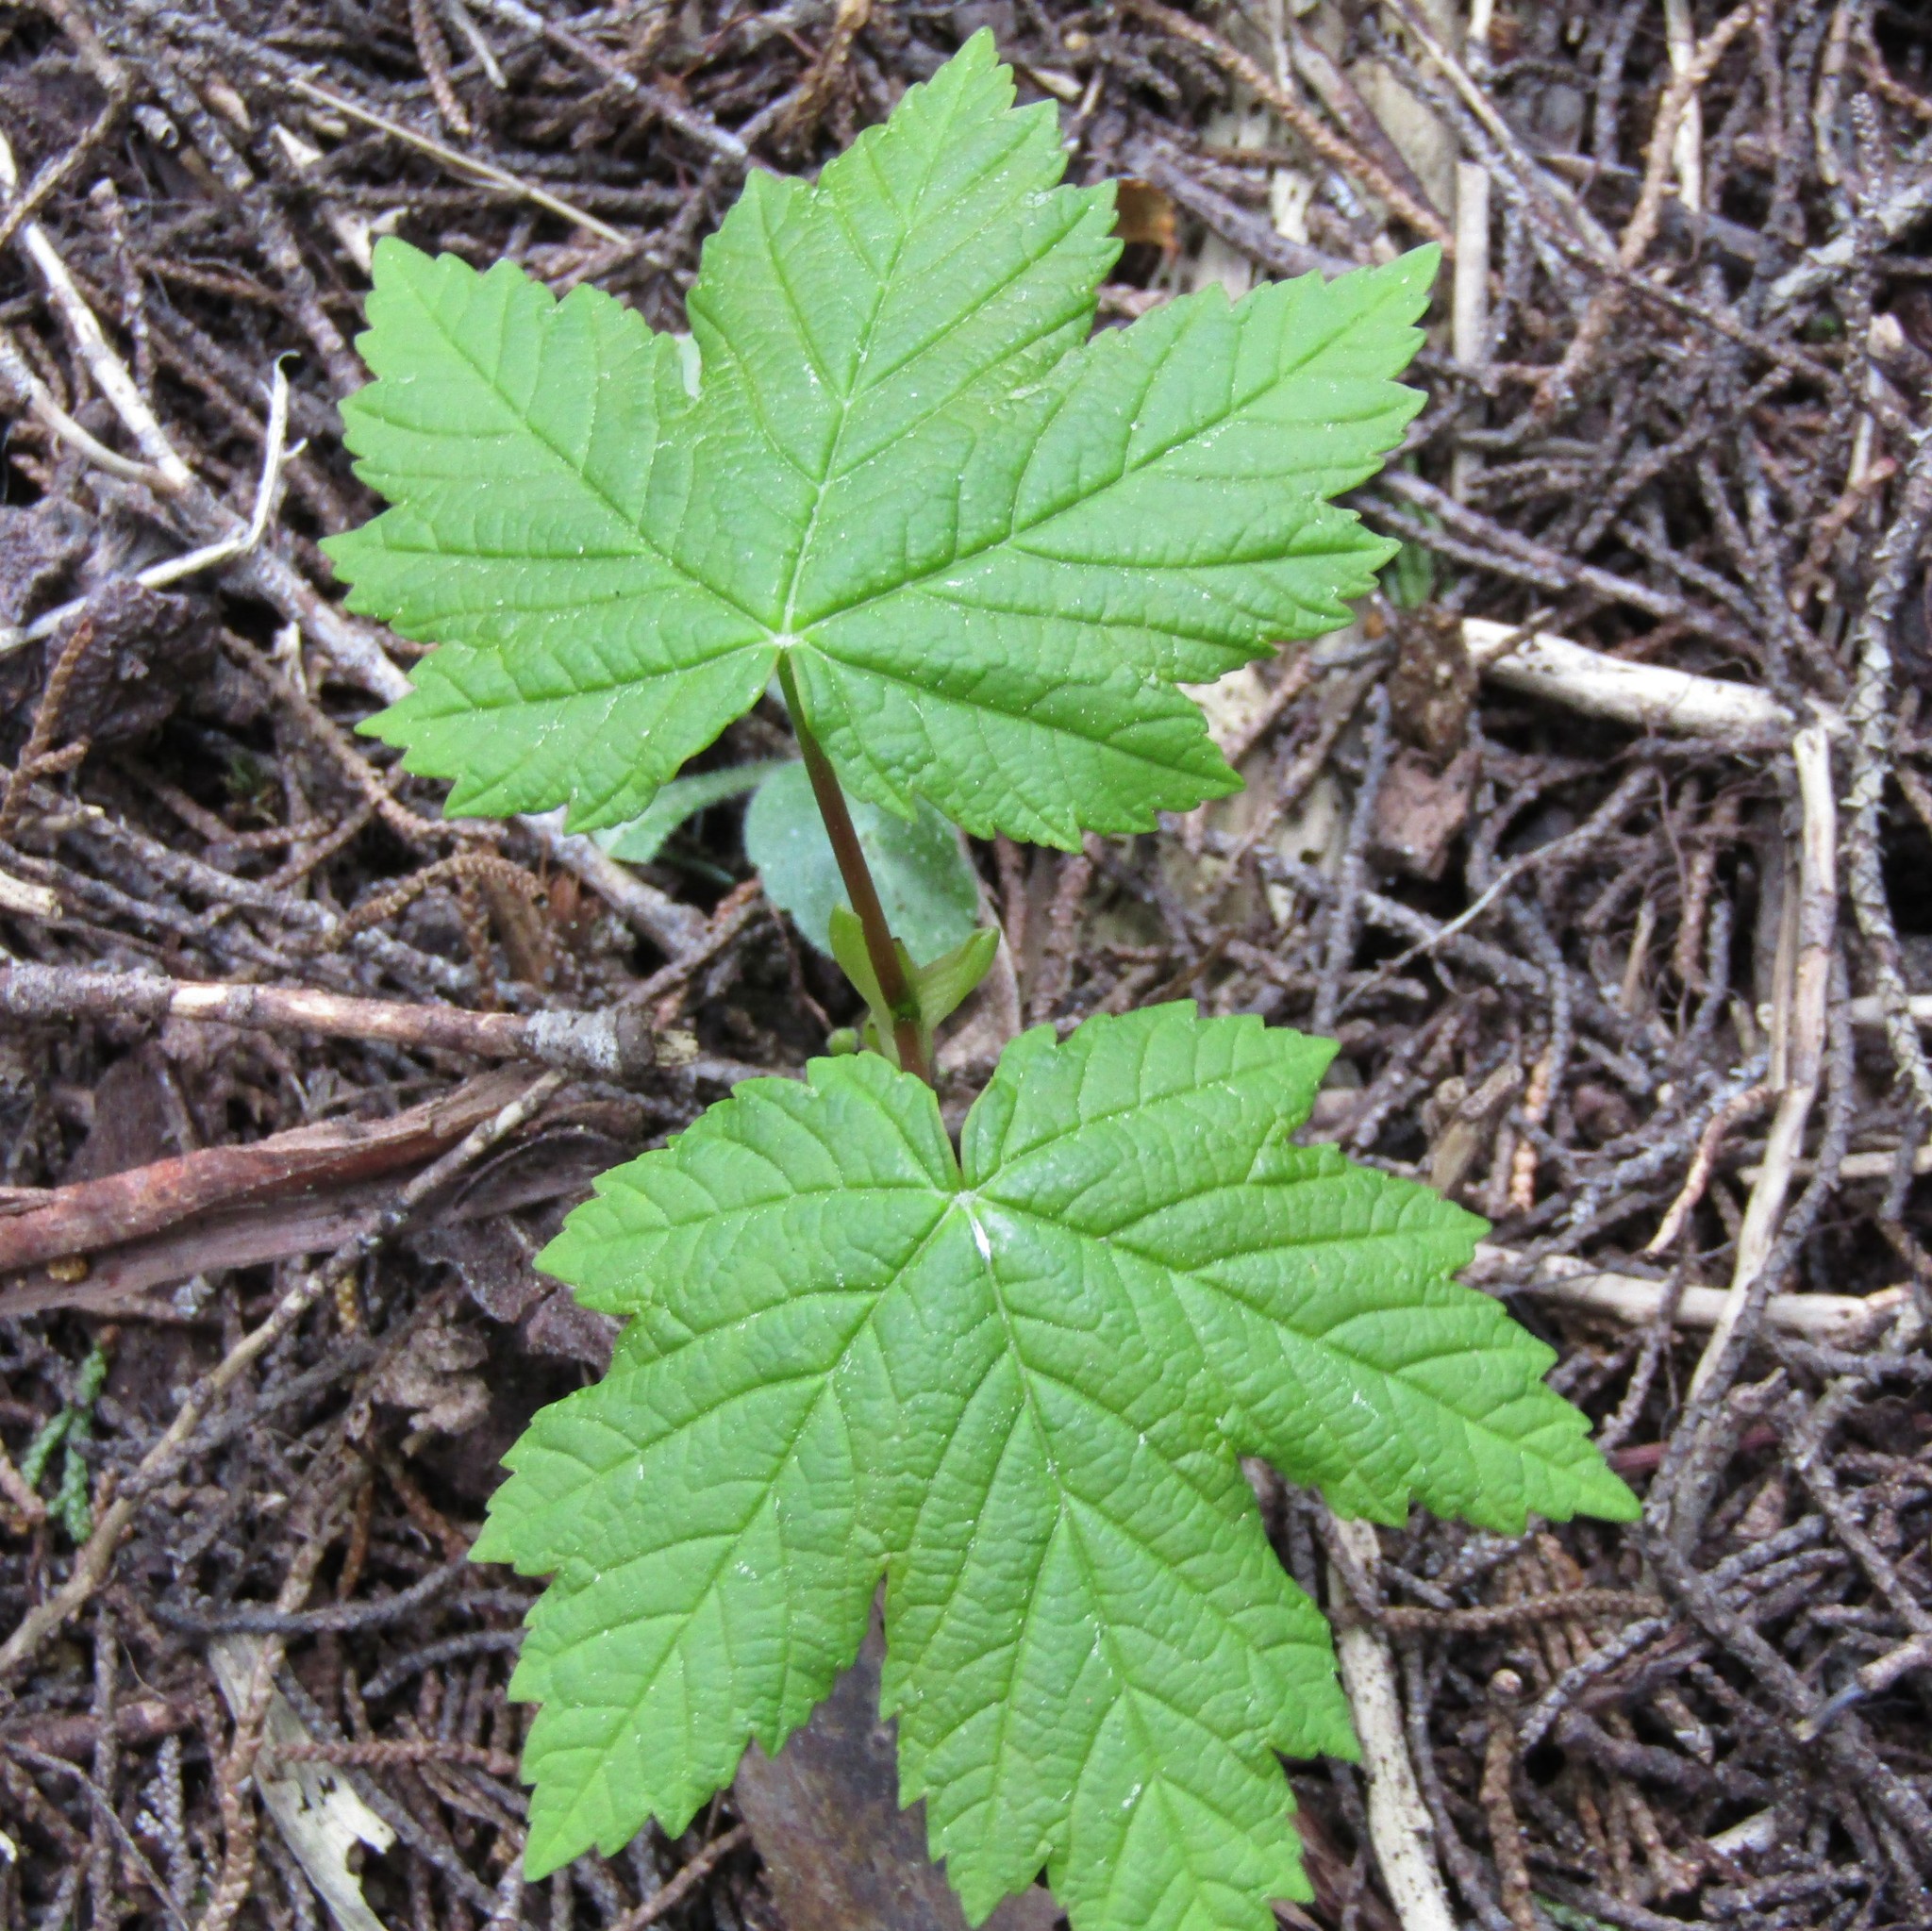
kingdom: Plantae
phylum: Tracheophyta
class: Magnoliopsida
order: Sapindales
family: Sapindaceae
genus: Acer
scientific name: Acer pseudoplatanus
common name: Sycamore
